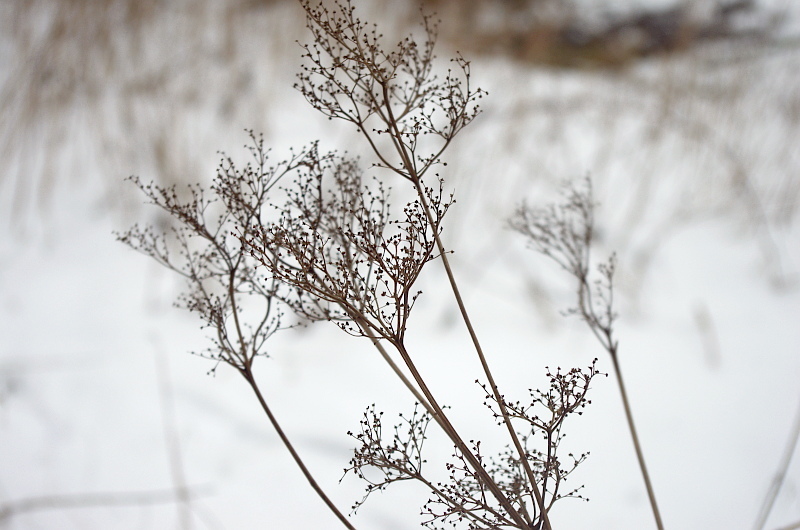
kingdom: Plantae
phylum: Tracheophyta
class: Magnoliopsida
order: Rosales
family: Rosaceae
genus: Filipendula
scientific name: Filipendula ulmaria
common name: Meadowsweet
